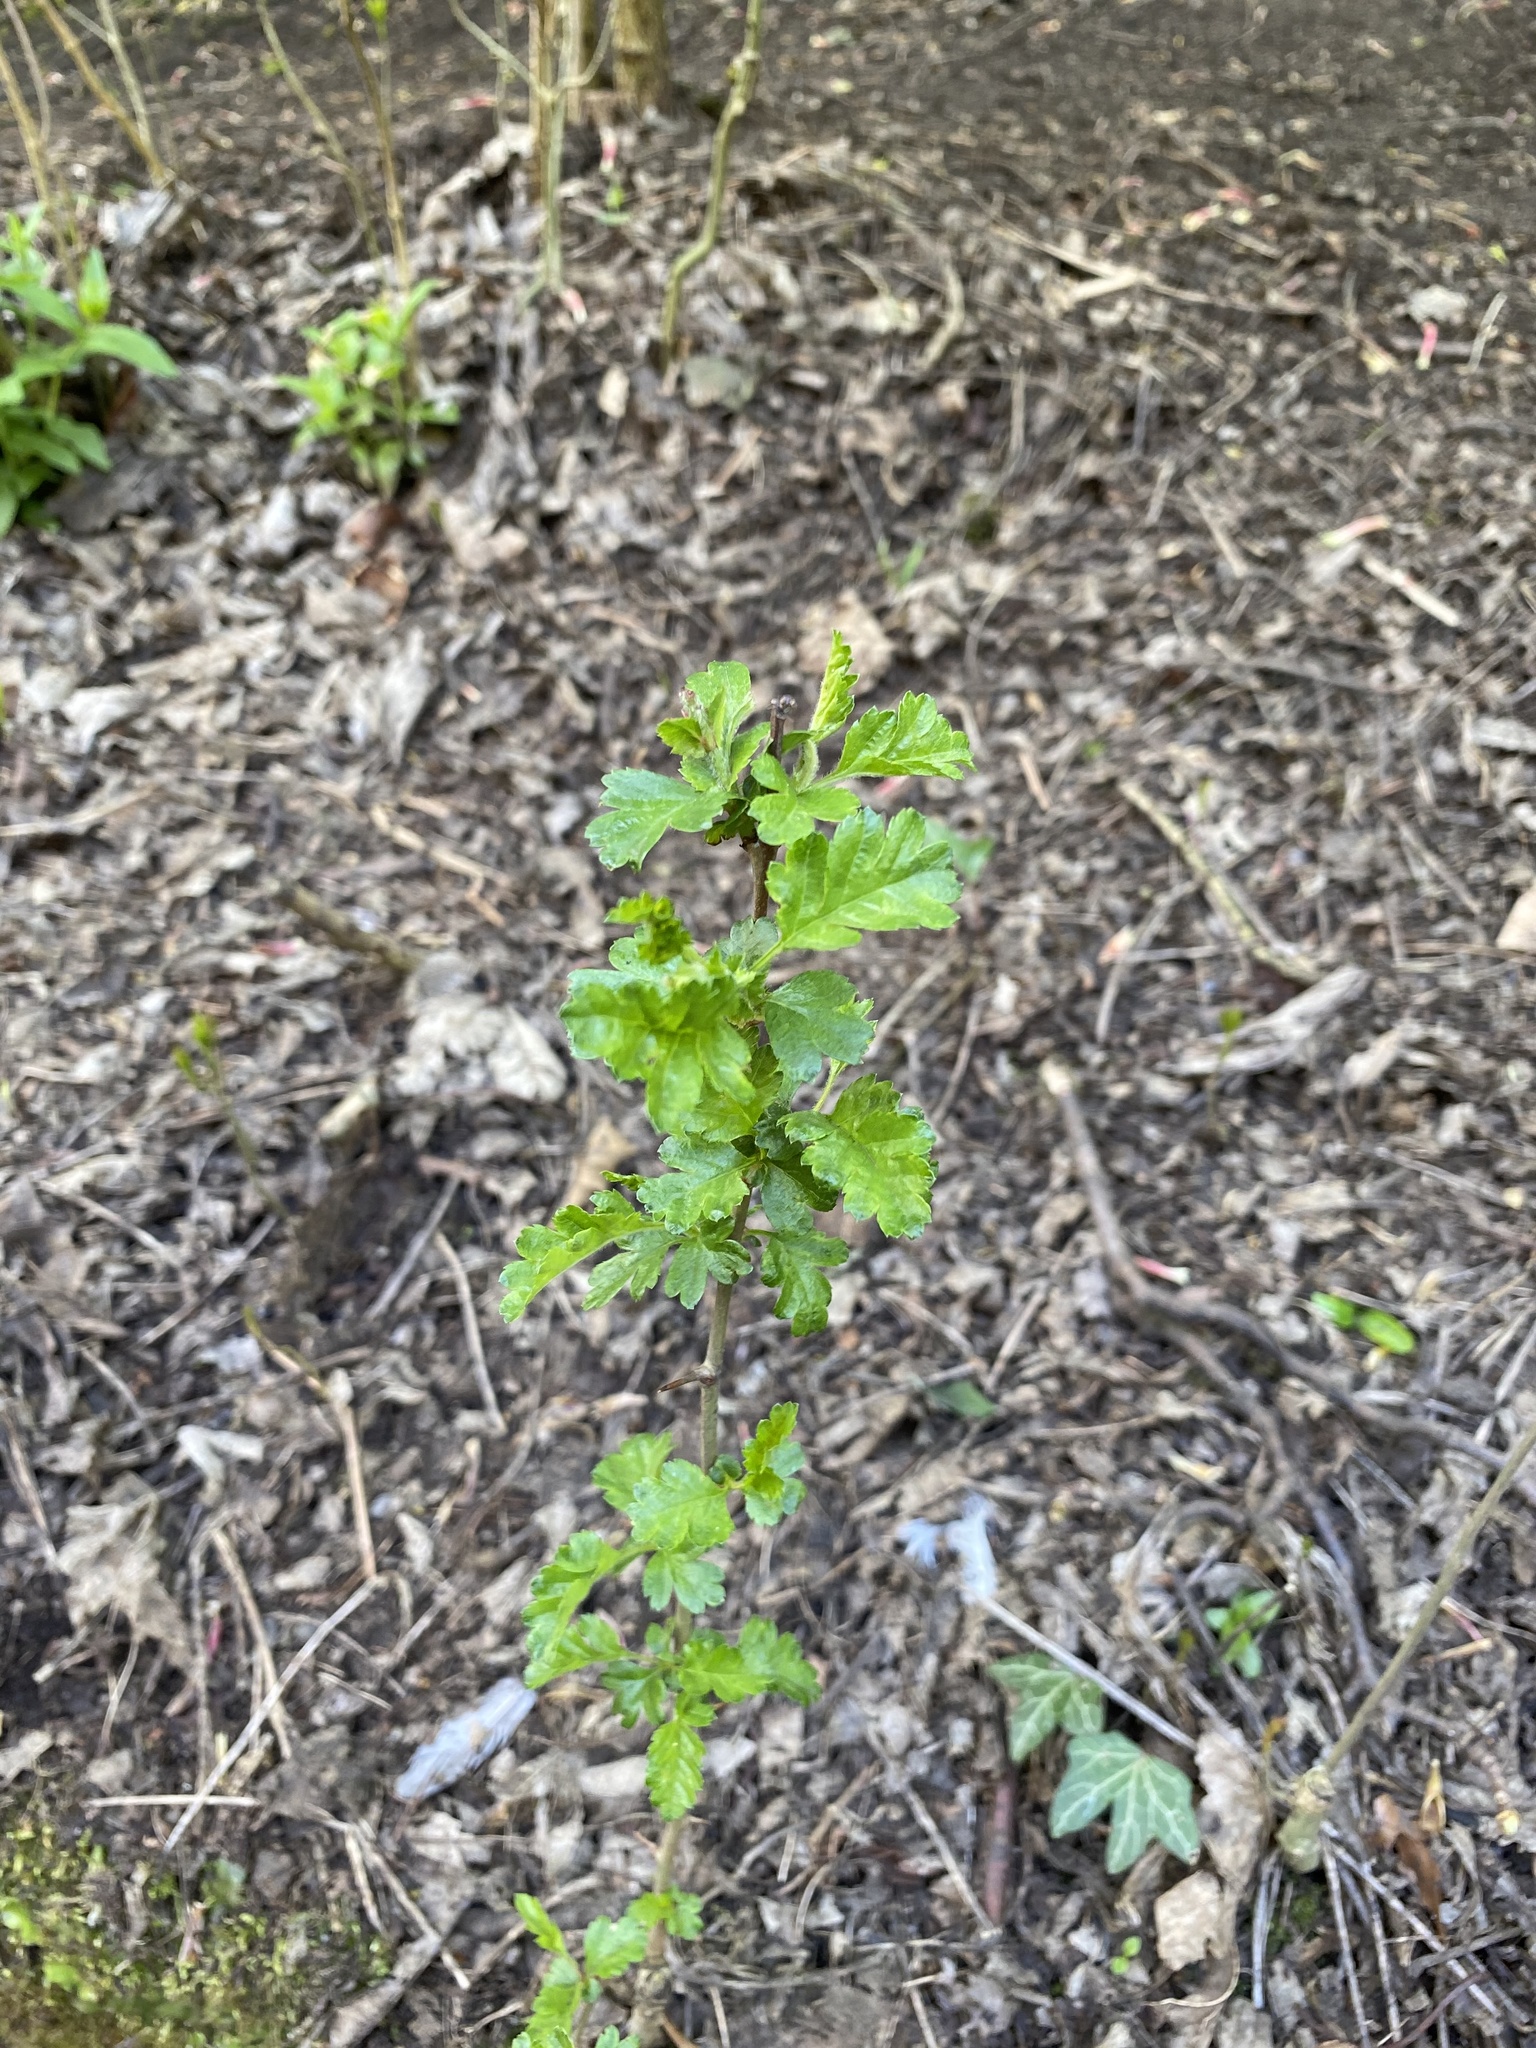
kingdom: Plantae
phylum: Tracheophyta
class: Magnoliopsida
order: Rosales
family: Rosaceae
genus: Crataegus
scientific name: Crataegus monogyna
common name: Hawthorn
